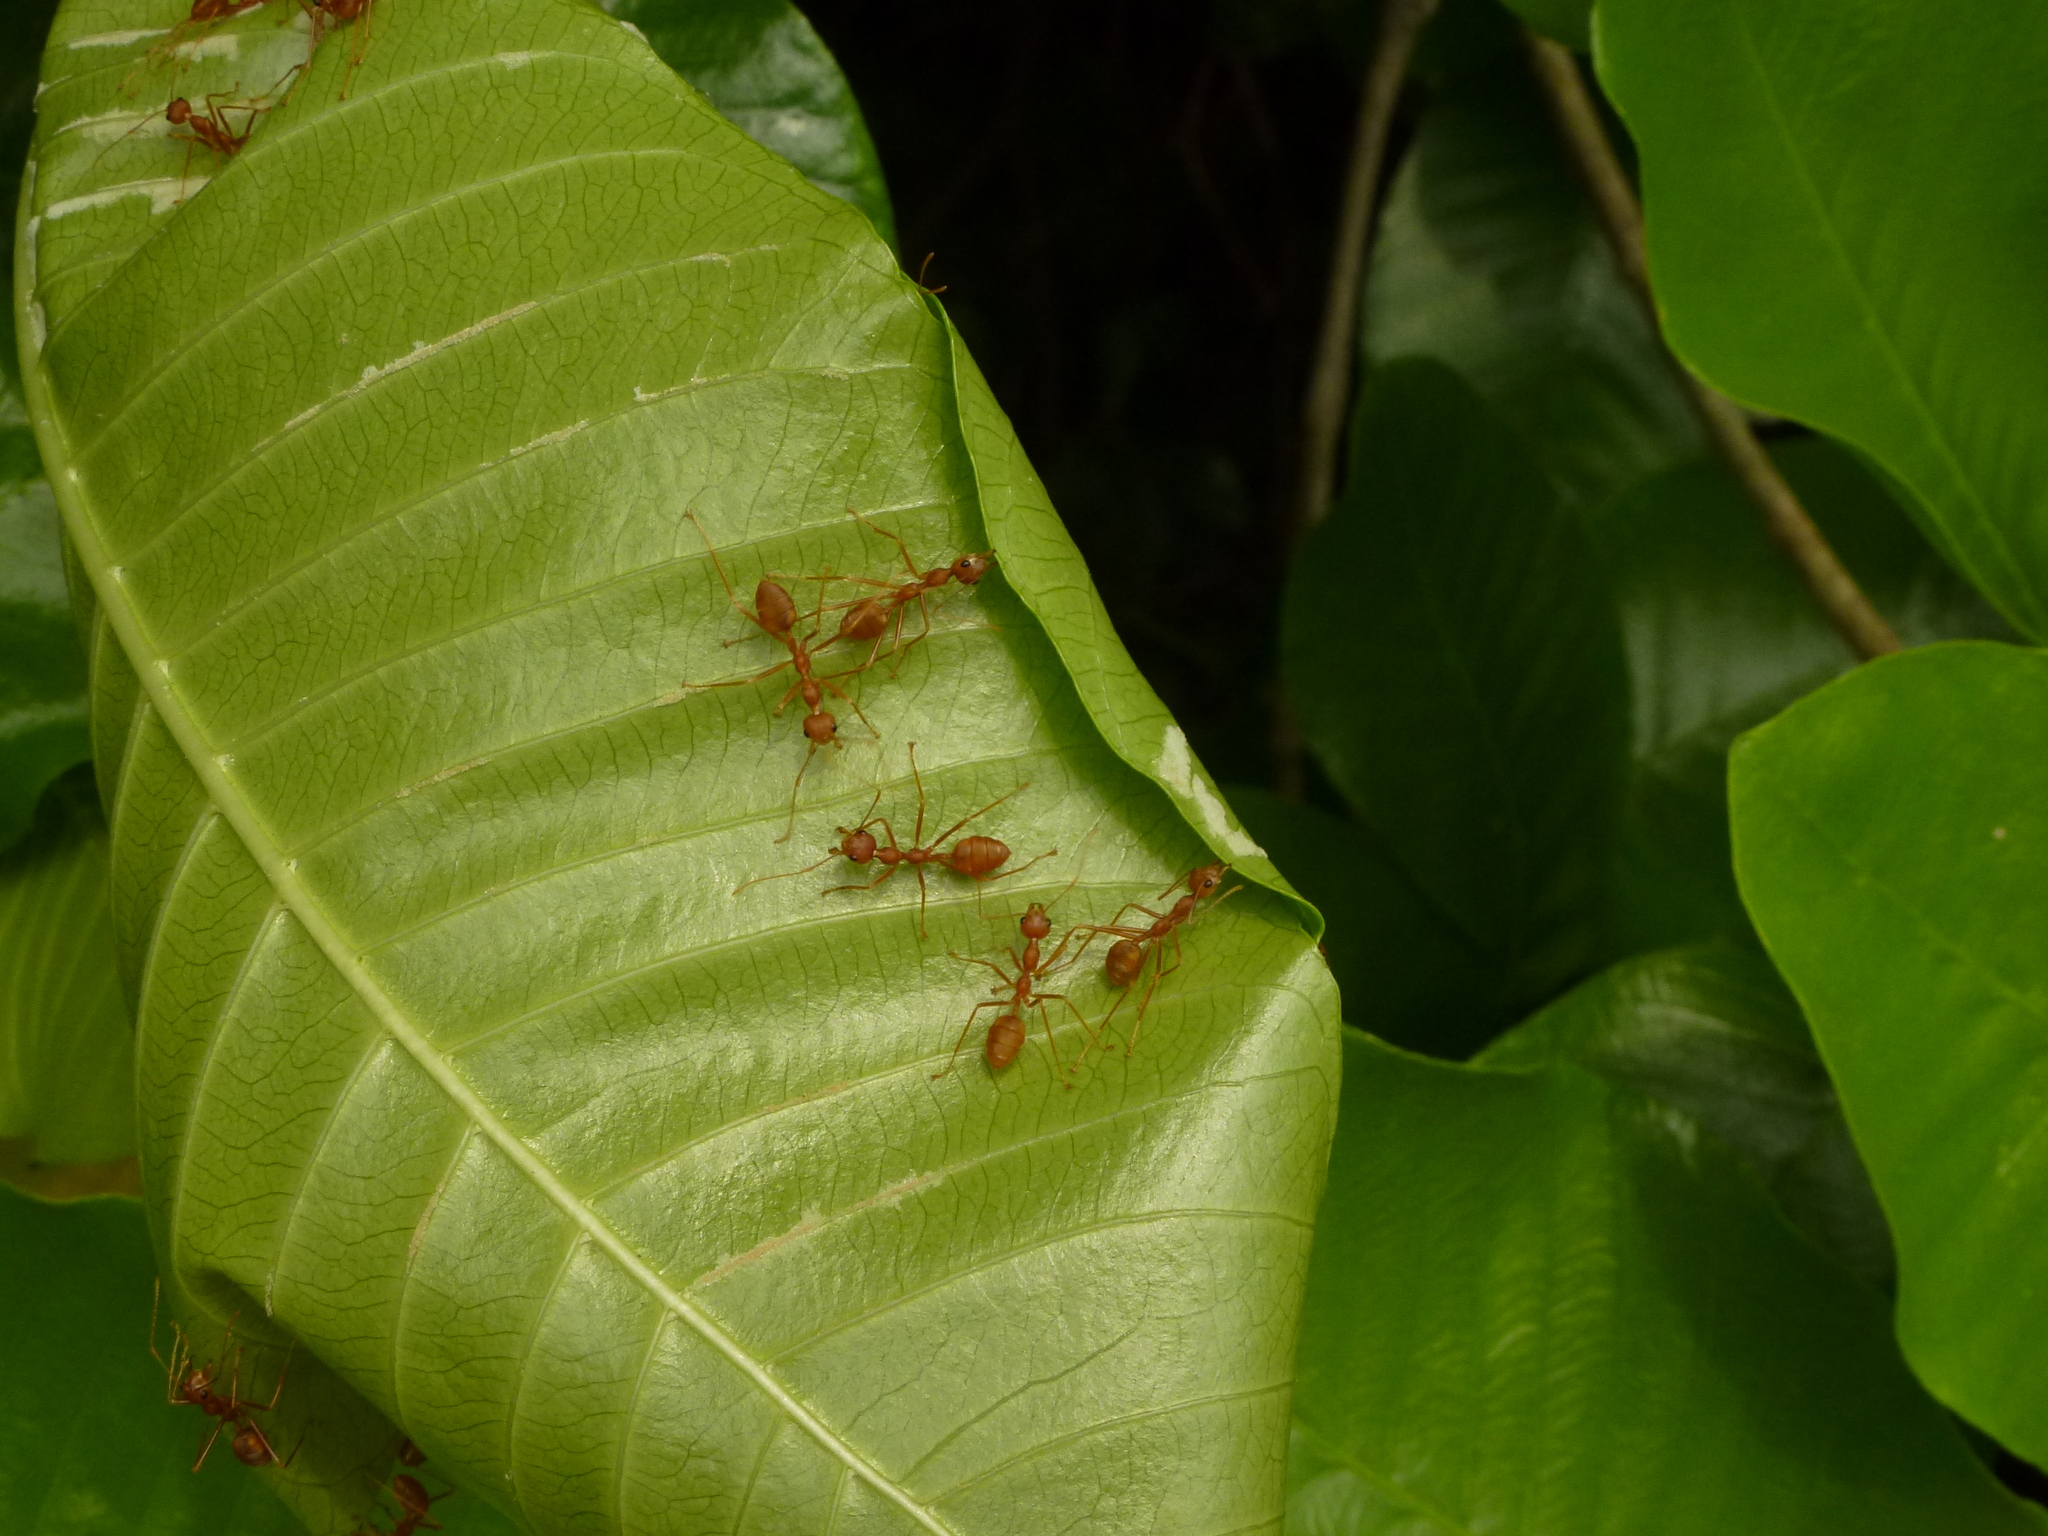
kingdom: Animalia
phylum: Arthropoda
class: Insecta
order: Hymenoptera
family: Formicidae
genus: Oecophylla
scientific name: Oecophylla smaragdina
